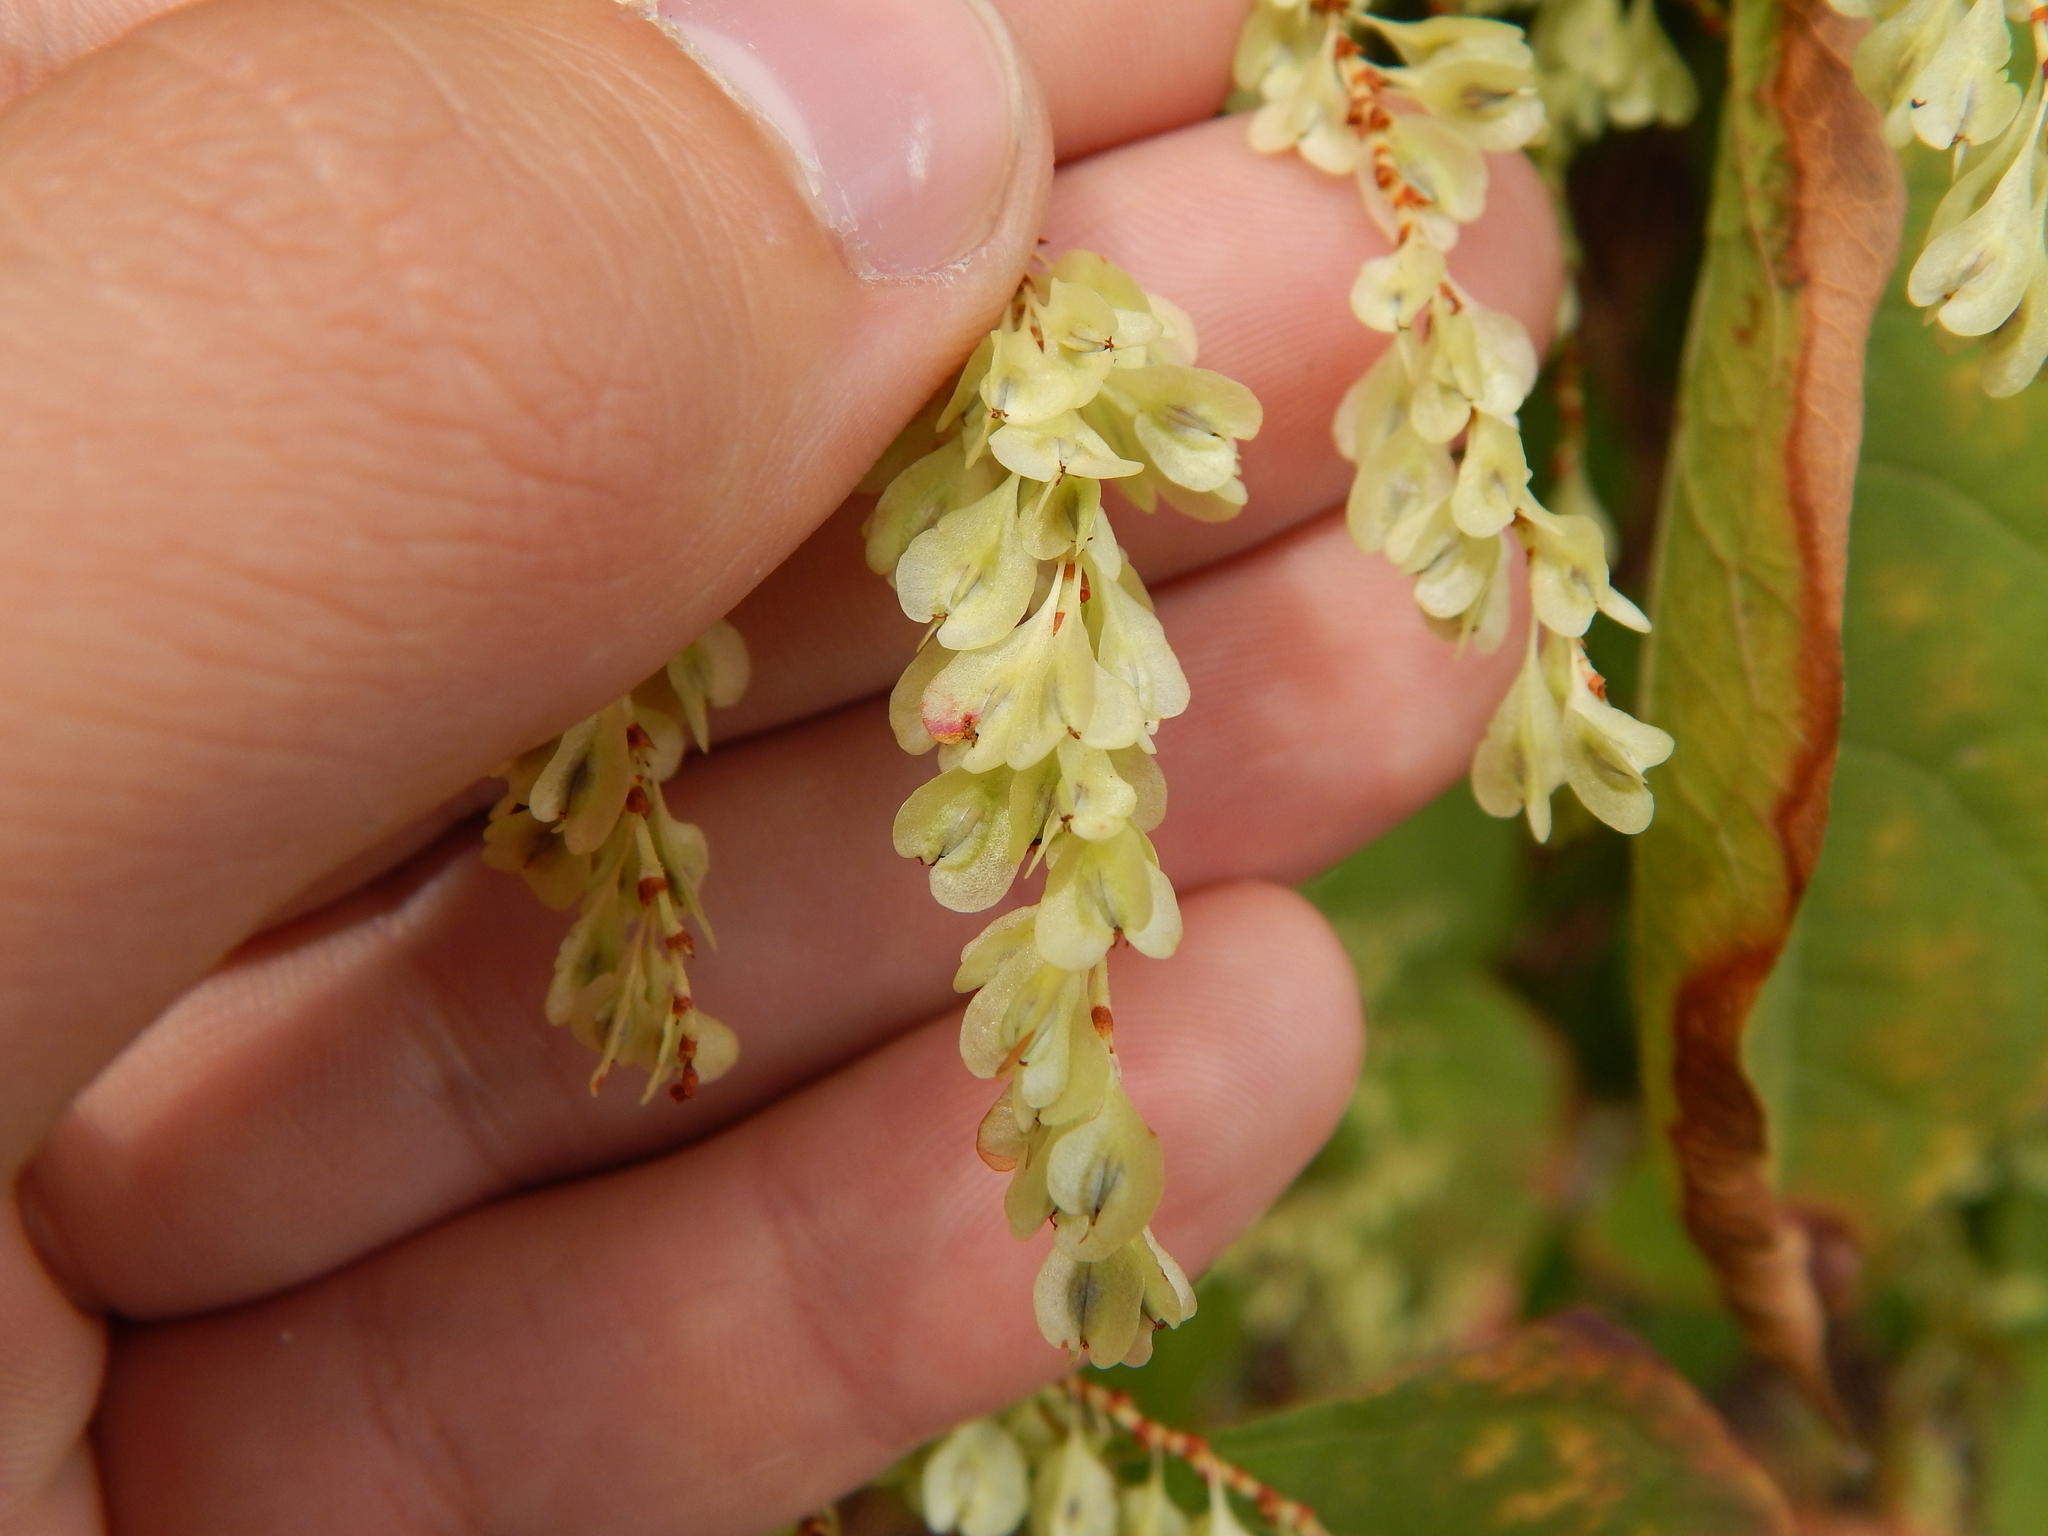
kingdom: Plantae
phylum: Tracheophyta
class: Magnoliopsida
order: Caryophyllales
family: Polygonaceae
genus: Reynoutria
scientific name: Reynoutria japonica
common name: Japanese knotweed
